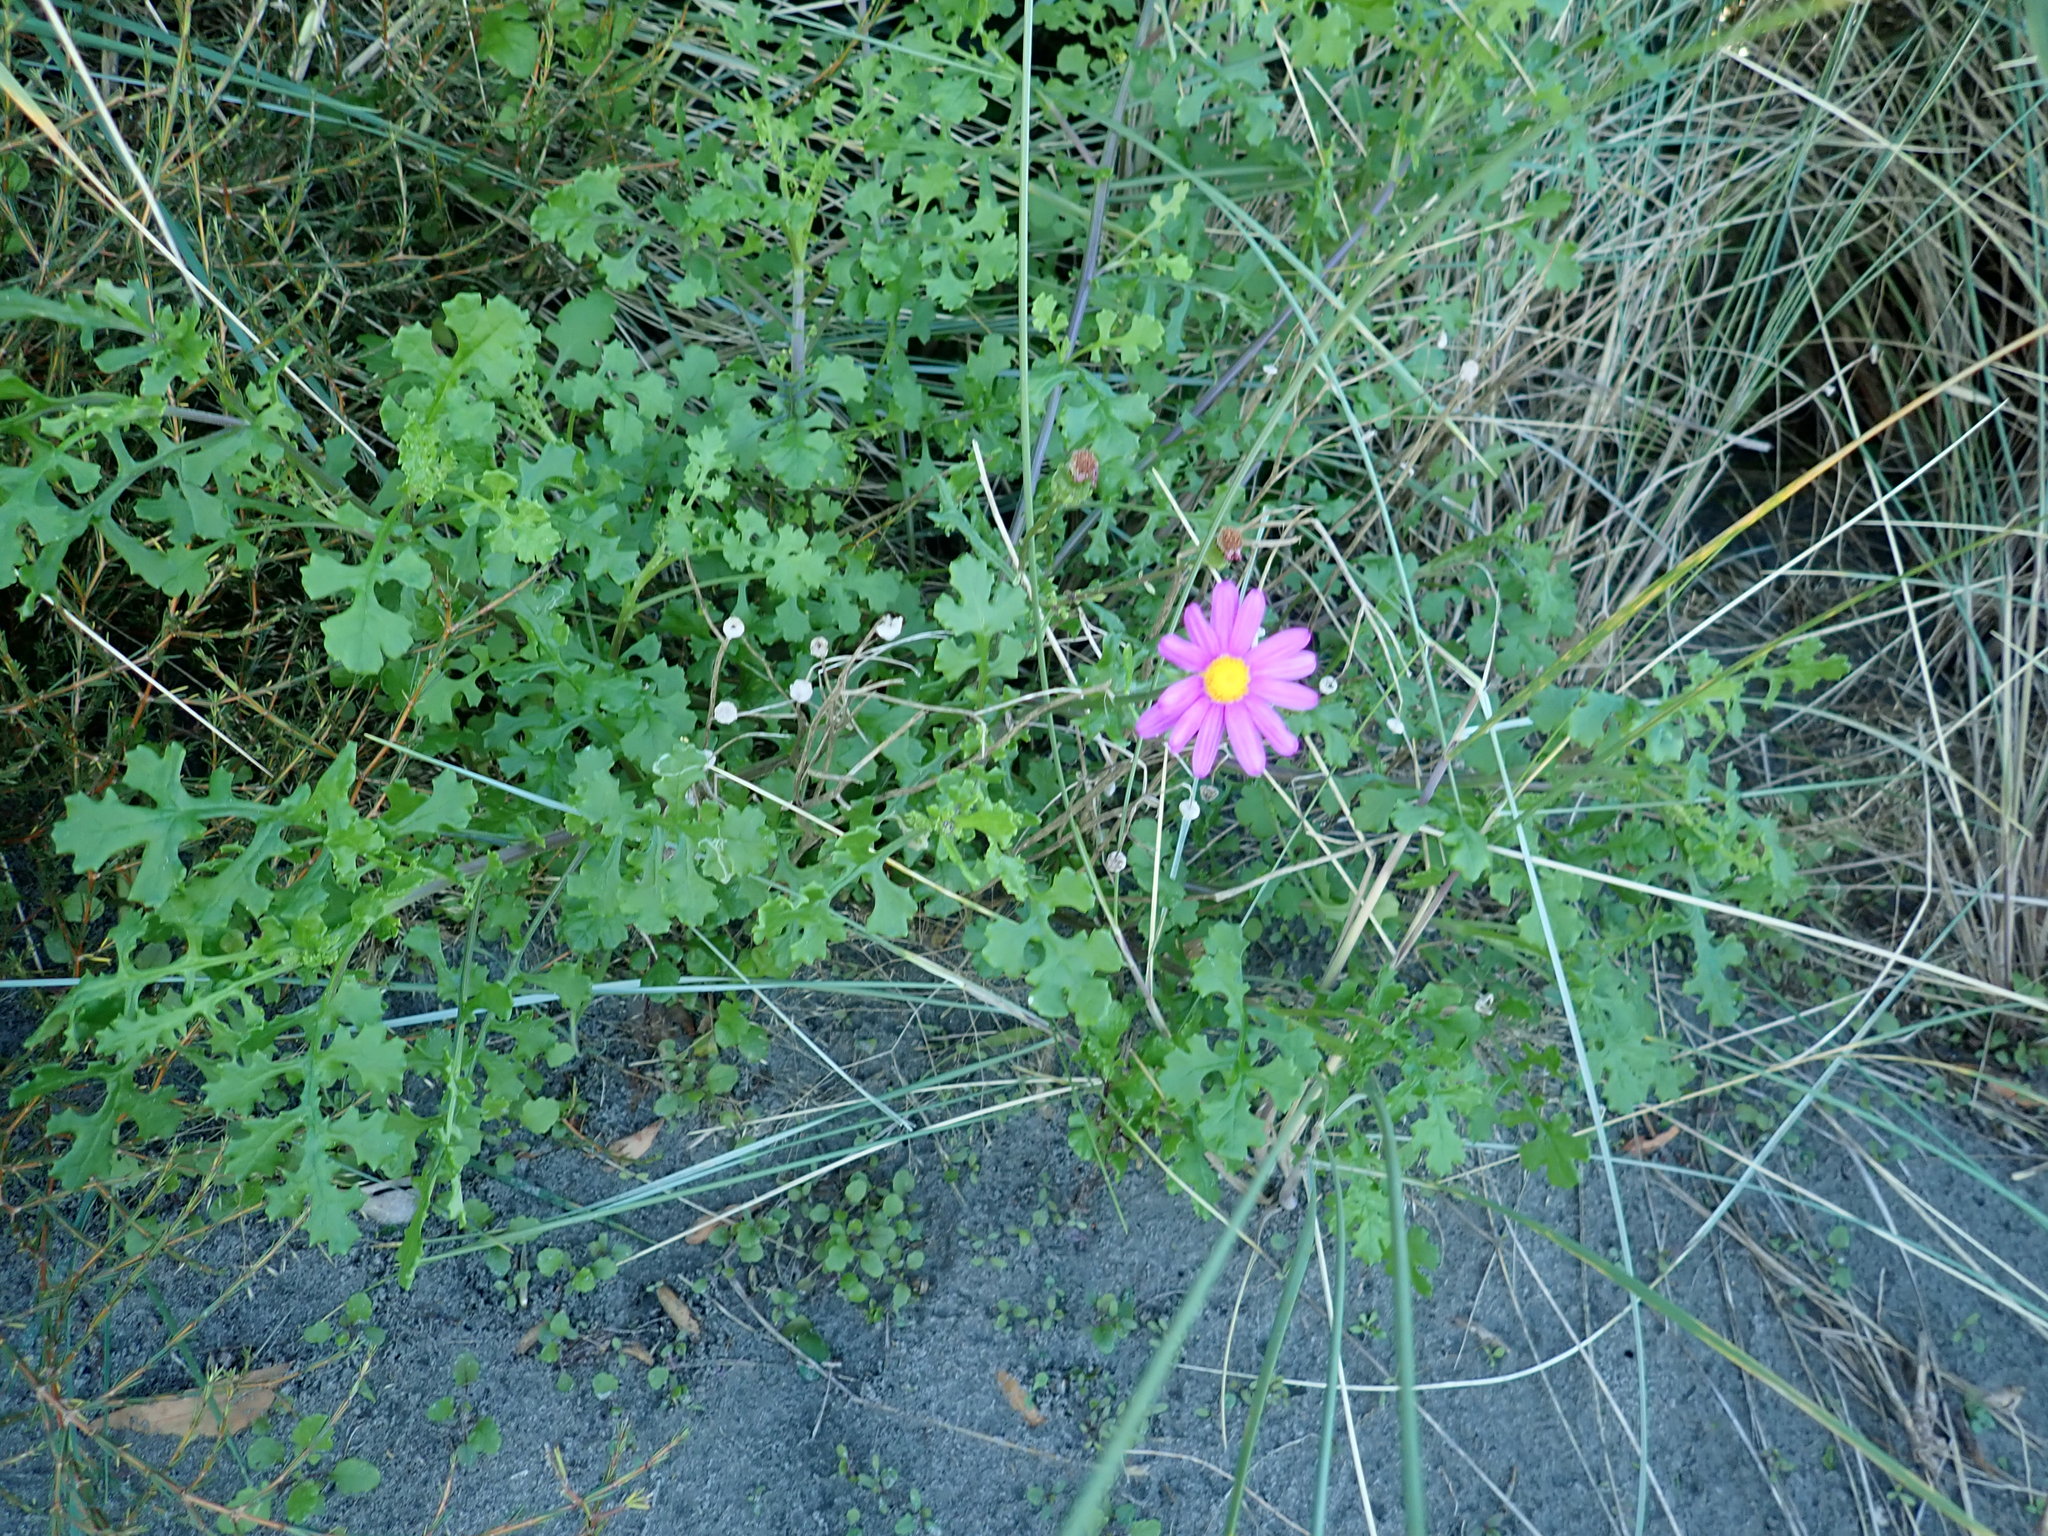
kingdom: Plantae
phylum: Tracheophyta
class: Magnoliopsida
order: Asterales
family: Asteraceae
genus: Senecio
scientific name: Senecio elegans
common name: Purple groundsel
